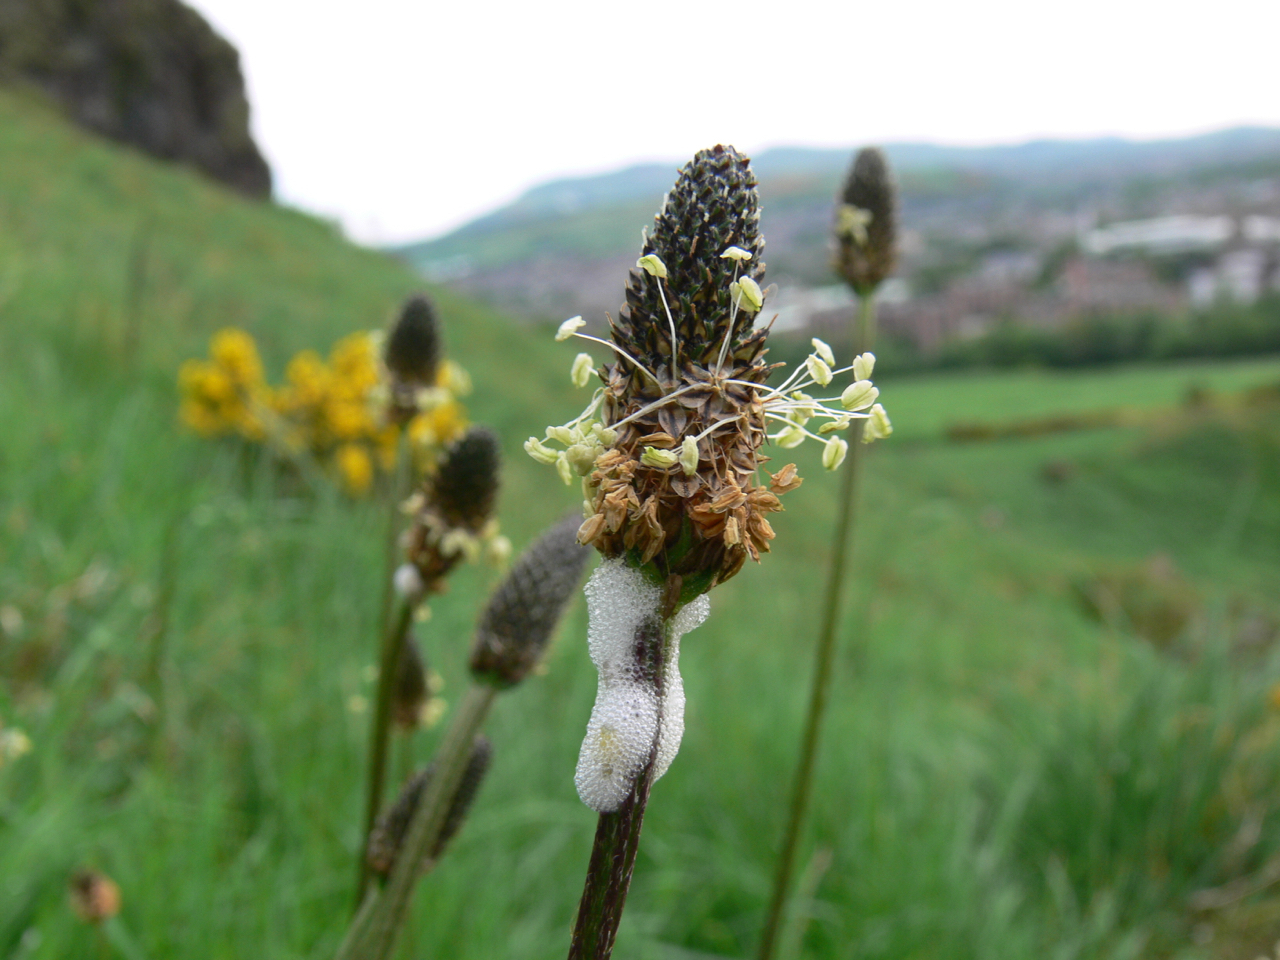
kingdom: Plantae
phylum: Tracheophyta
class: Magnoliopsida
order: Lamiales
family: Plantaginaceae
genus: Plantago
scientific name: Plantago lanceolata
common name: Ribwort plantain
